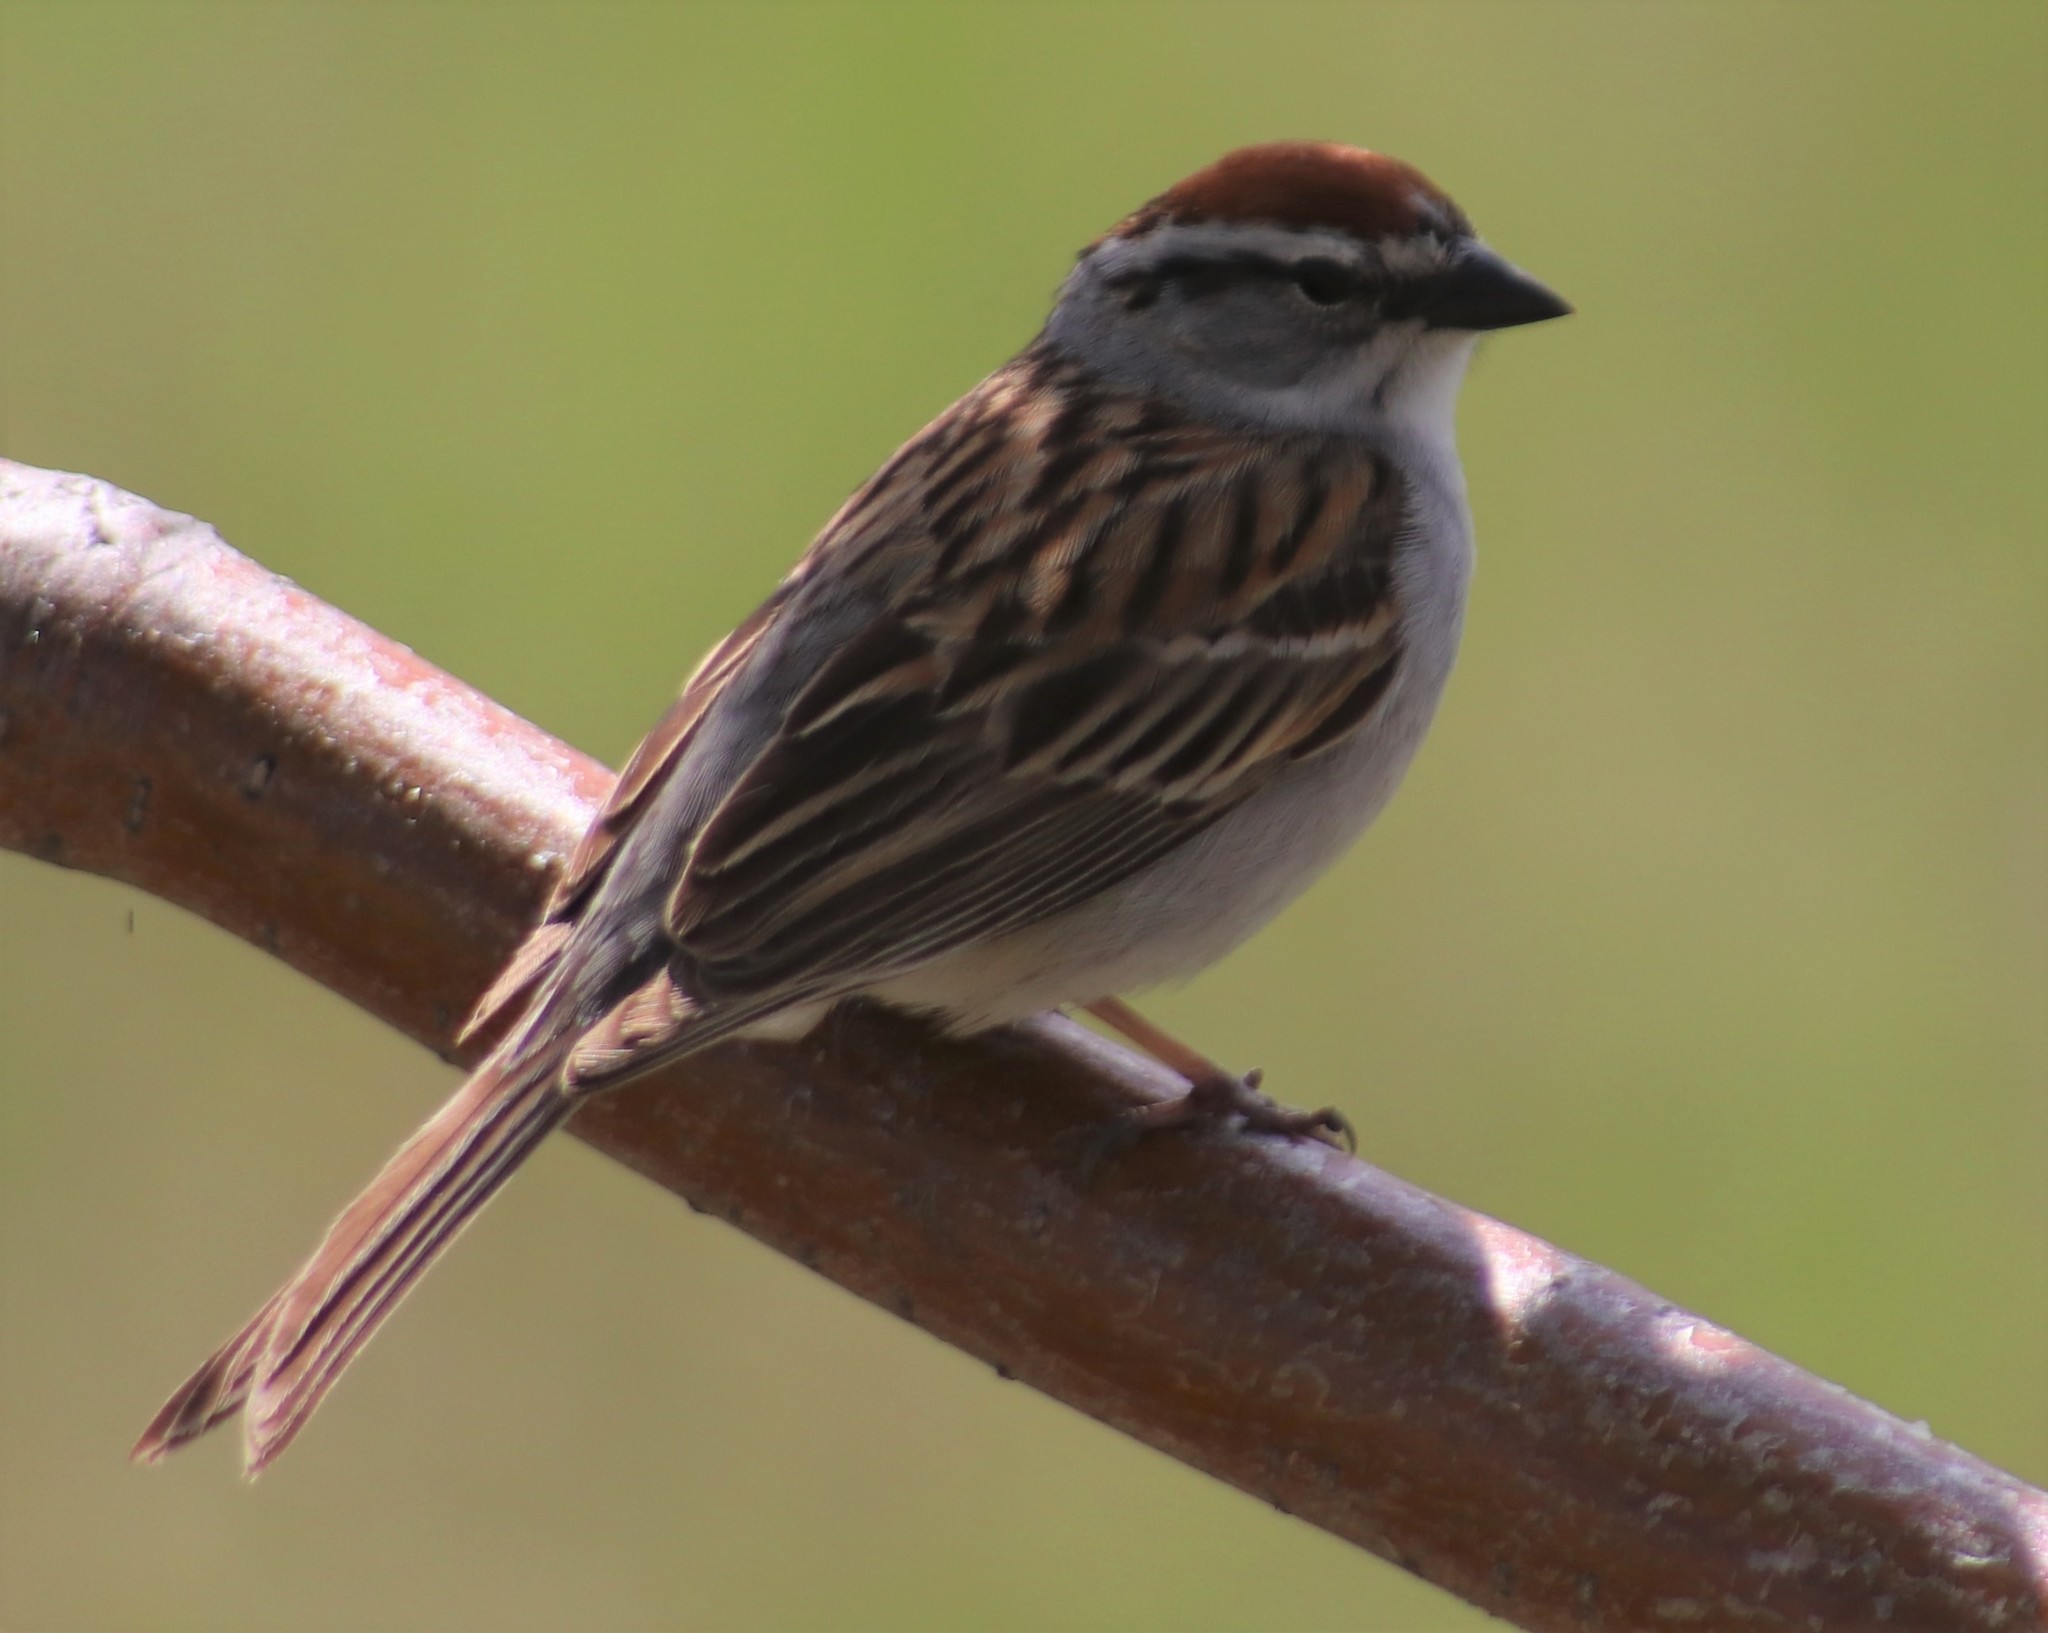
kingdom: Animalia
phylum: Chordata
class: Aves
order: Passeriformes
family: Passerellidae
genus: Spizella
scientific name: Spizella passerina
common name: Chipping sparrow
